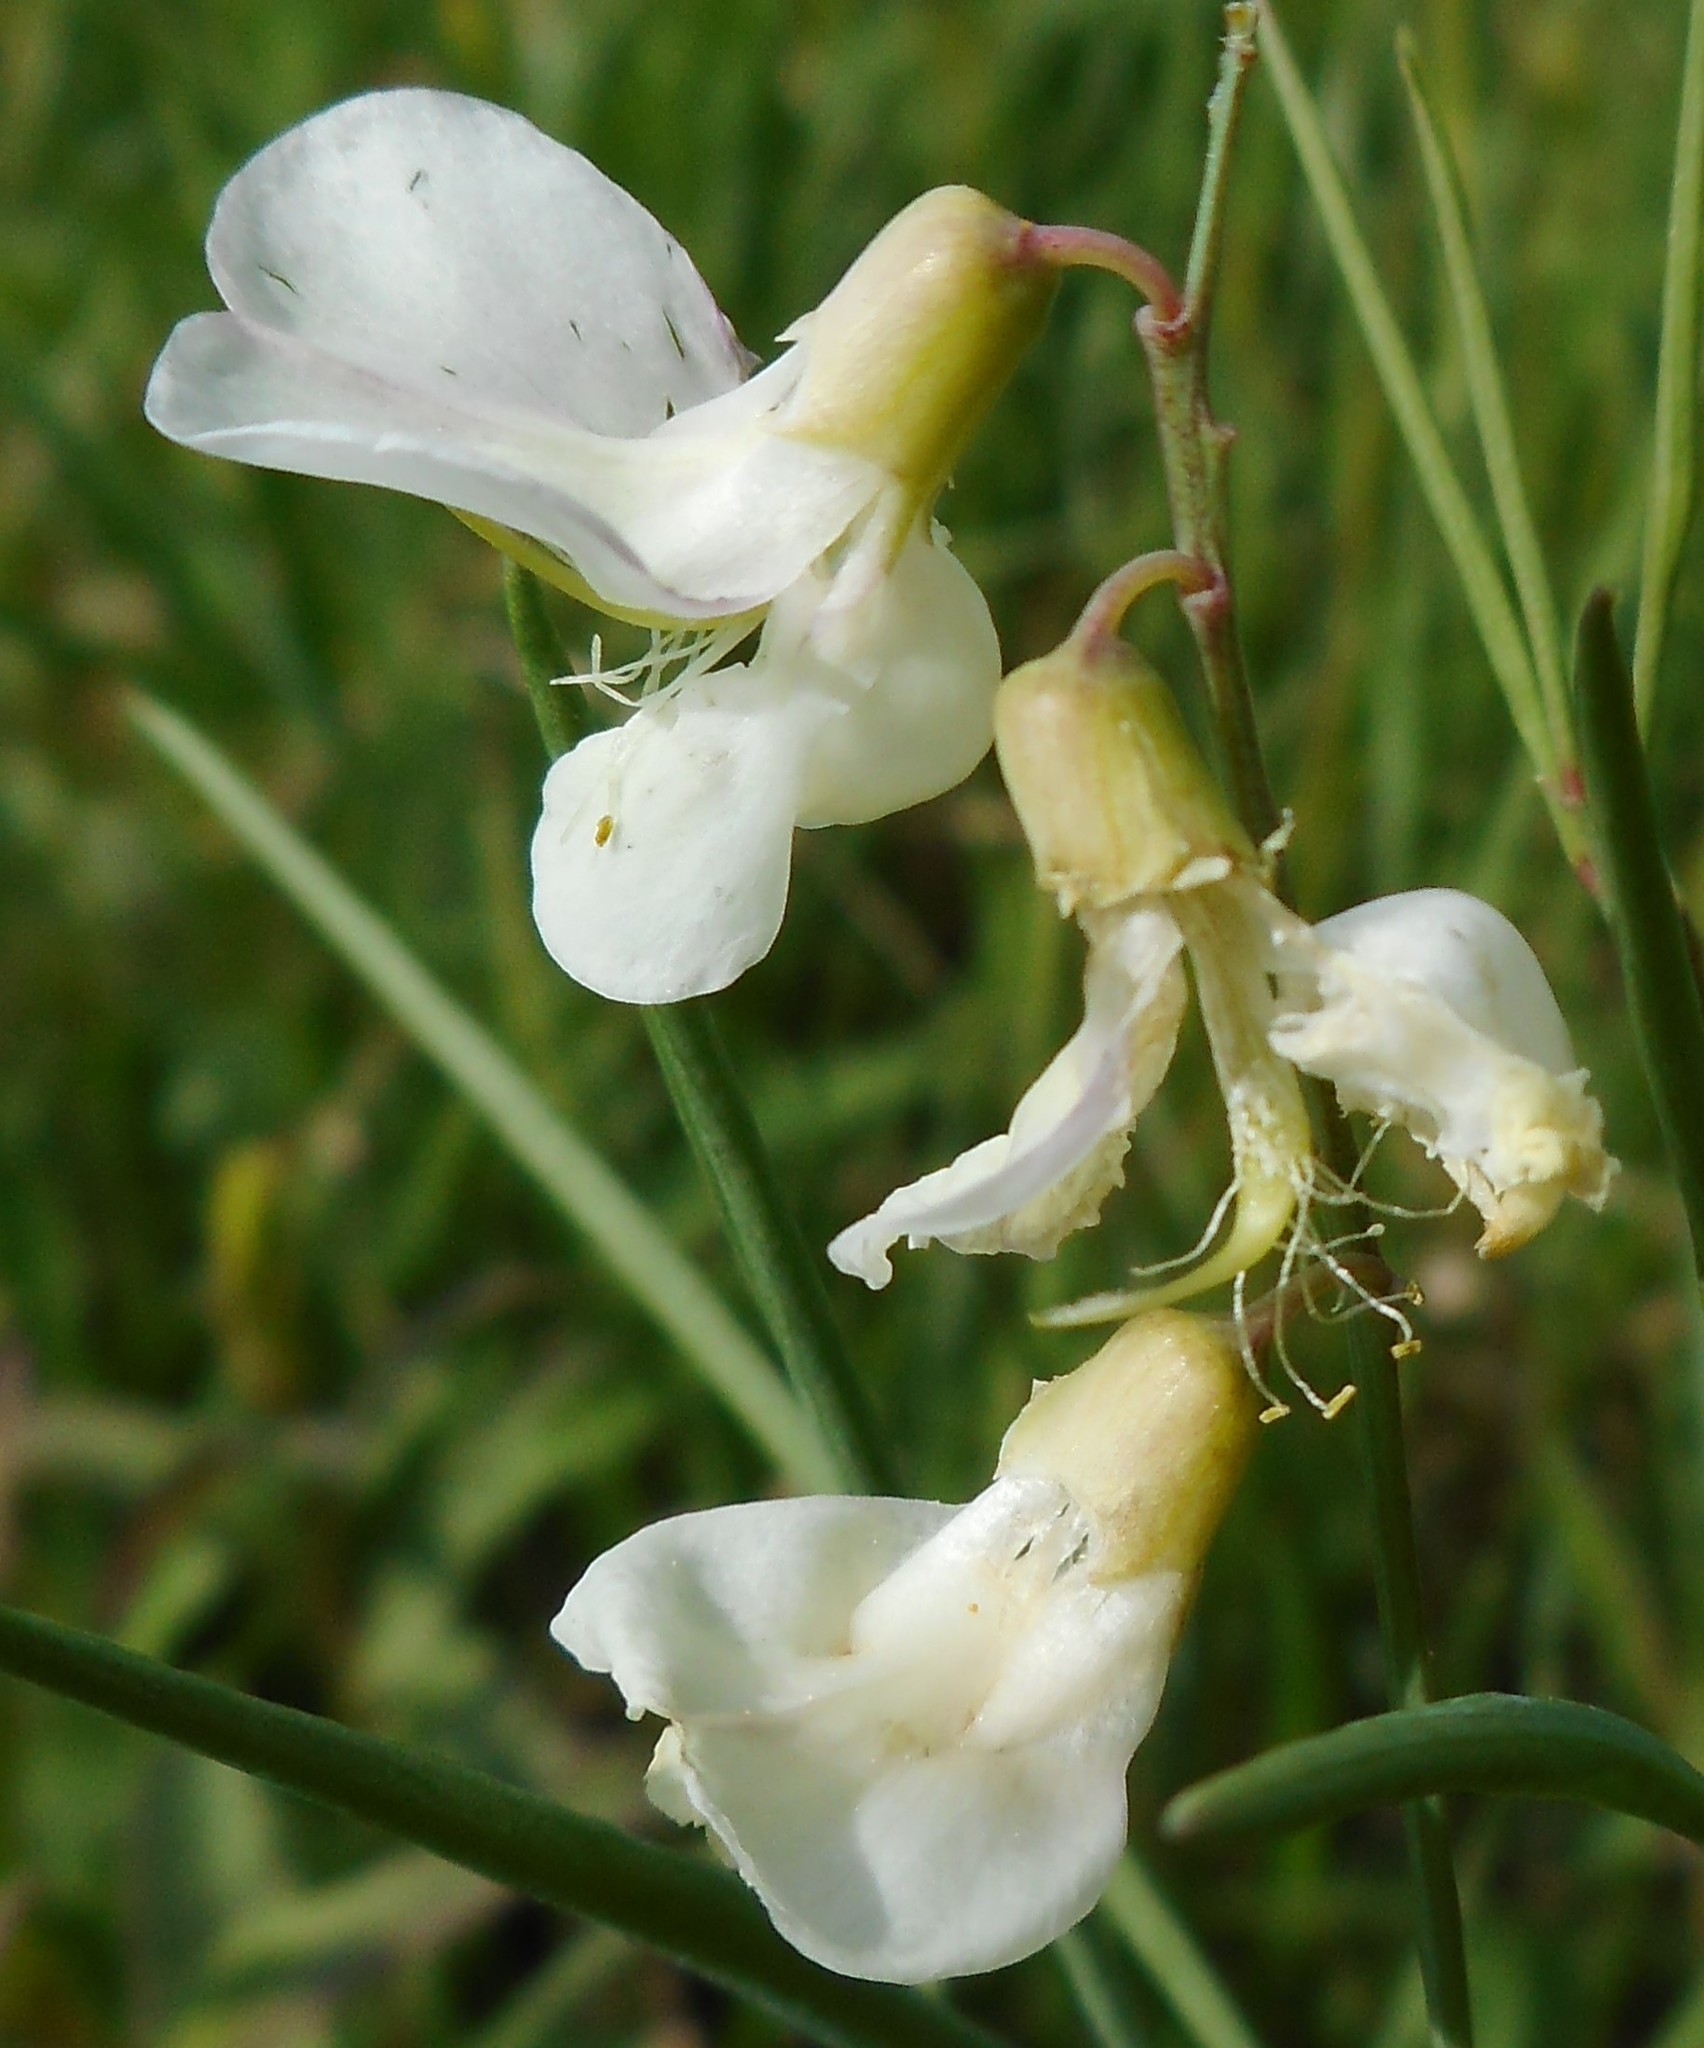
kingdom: Plantae
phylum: Tracheophyta
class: Magnoliopsida
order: Fabales
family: Fabaceae
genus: Lathyrus
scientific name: Lathyrus pannonicus
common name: Pea
